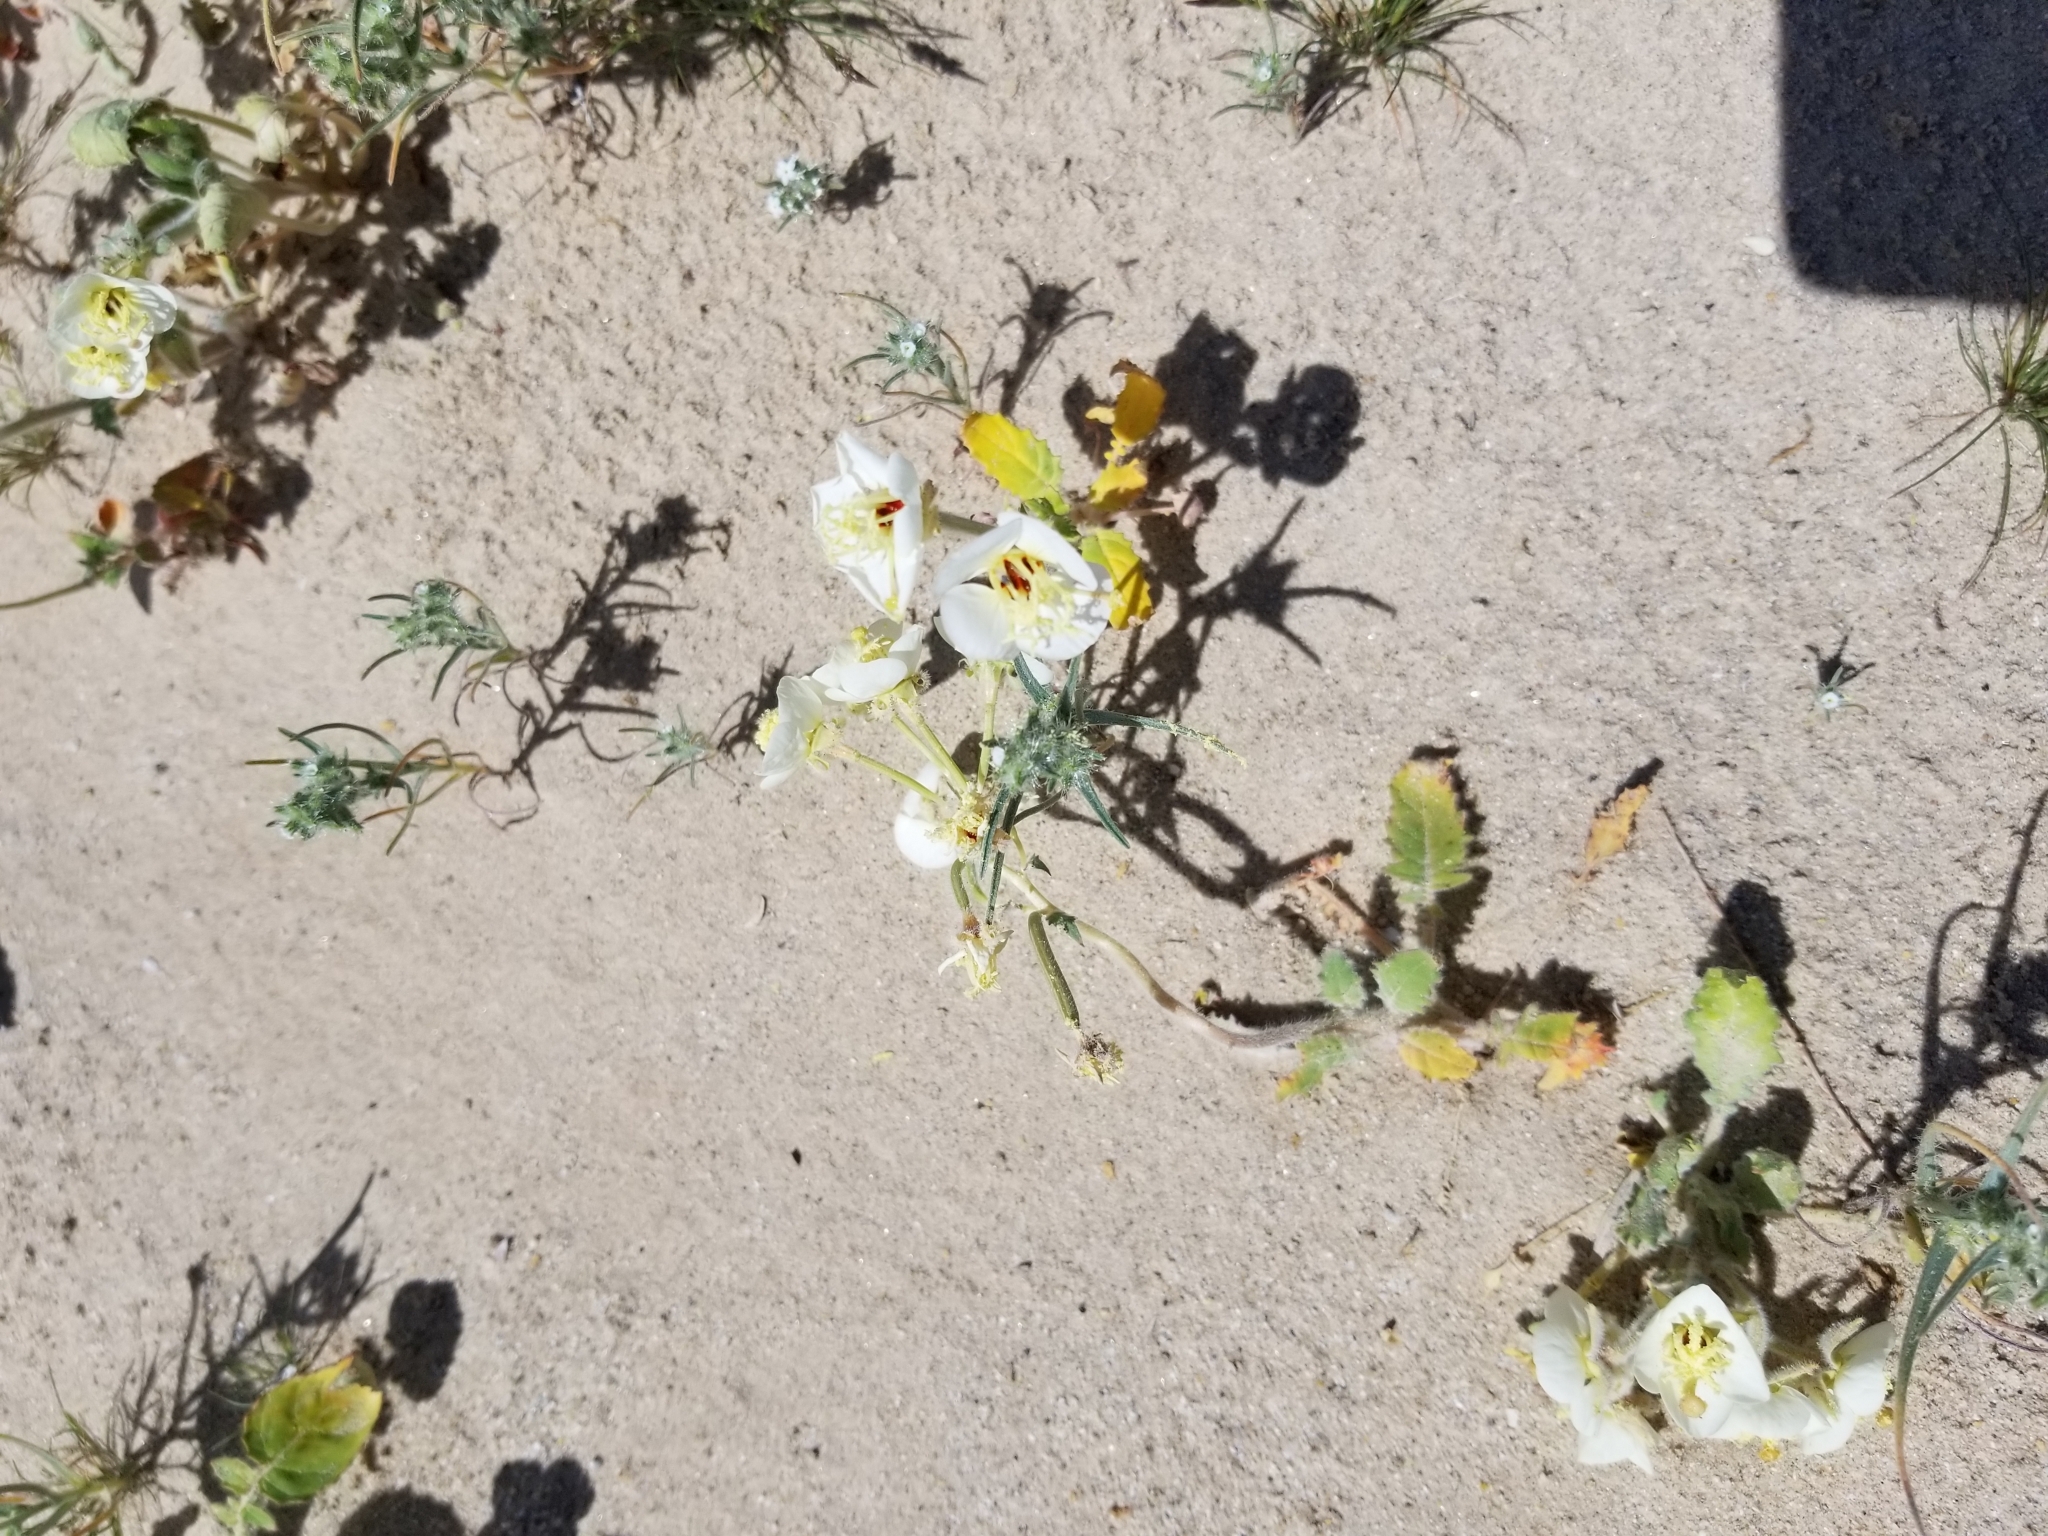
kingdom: Plantae
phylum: Tracheophyta
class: Magnoliopsida
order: Myrtales
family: Onagraceae
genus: Chylismia
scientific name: Chylismia claviformis
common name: Browneyes
